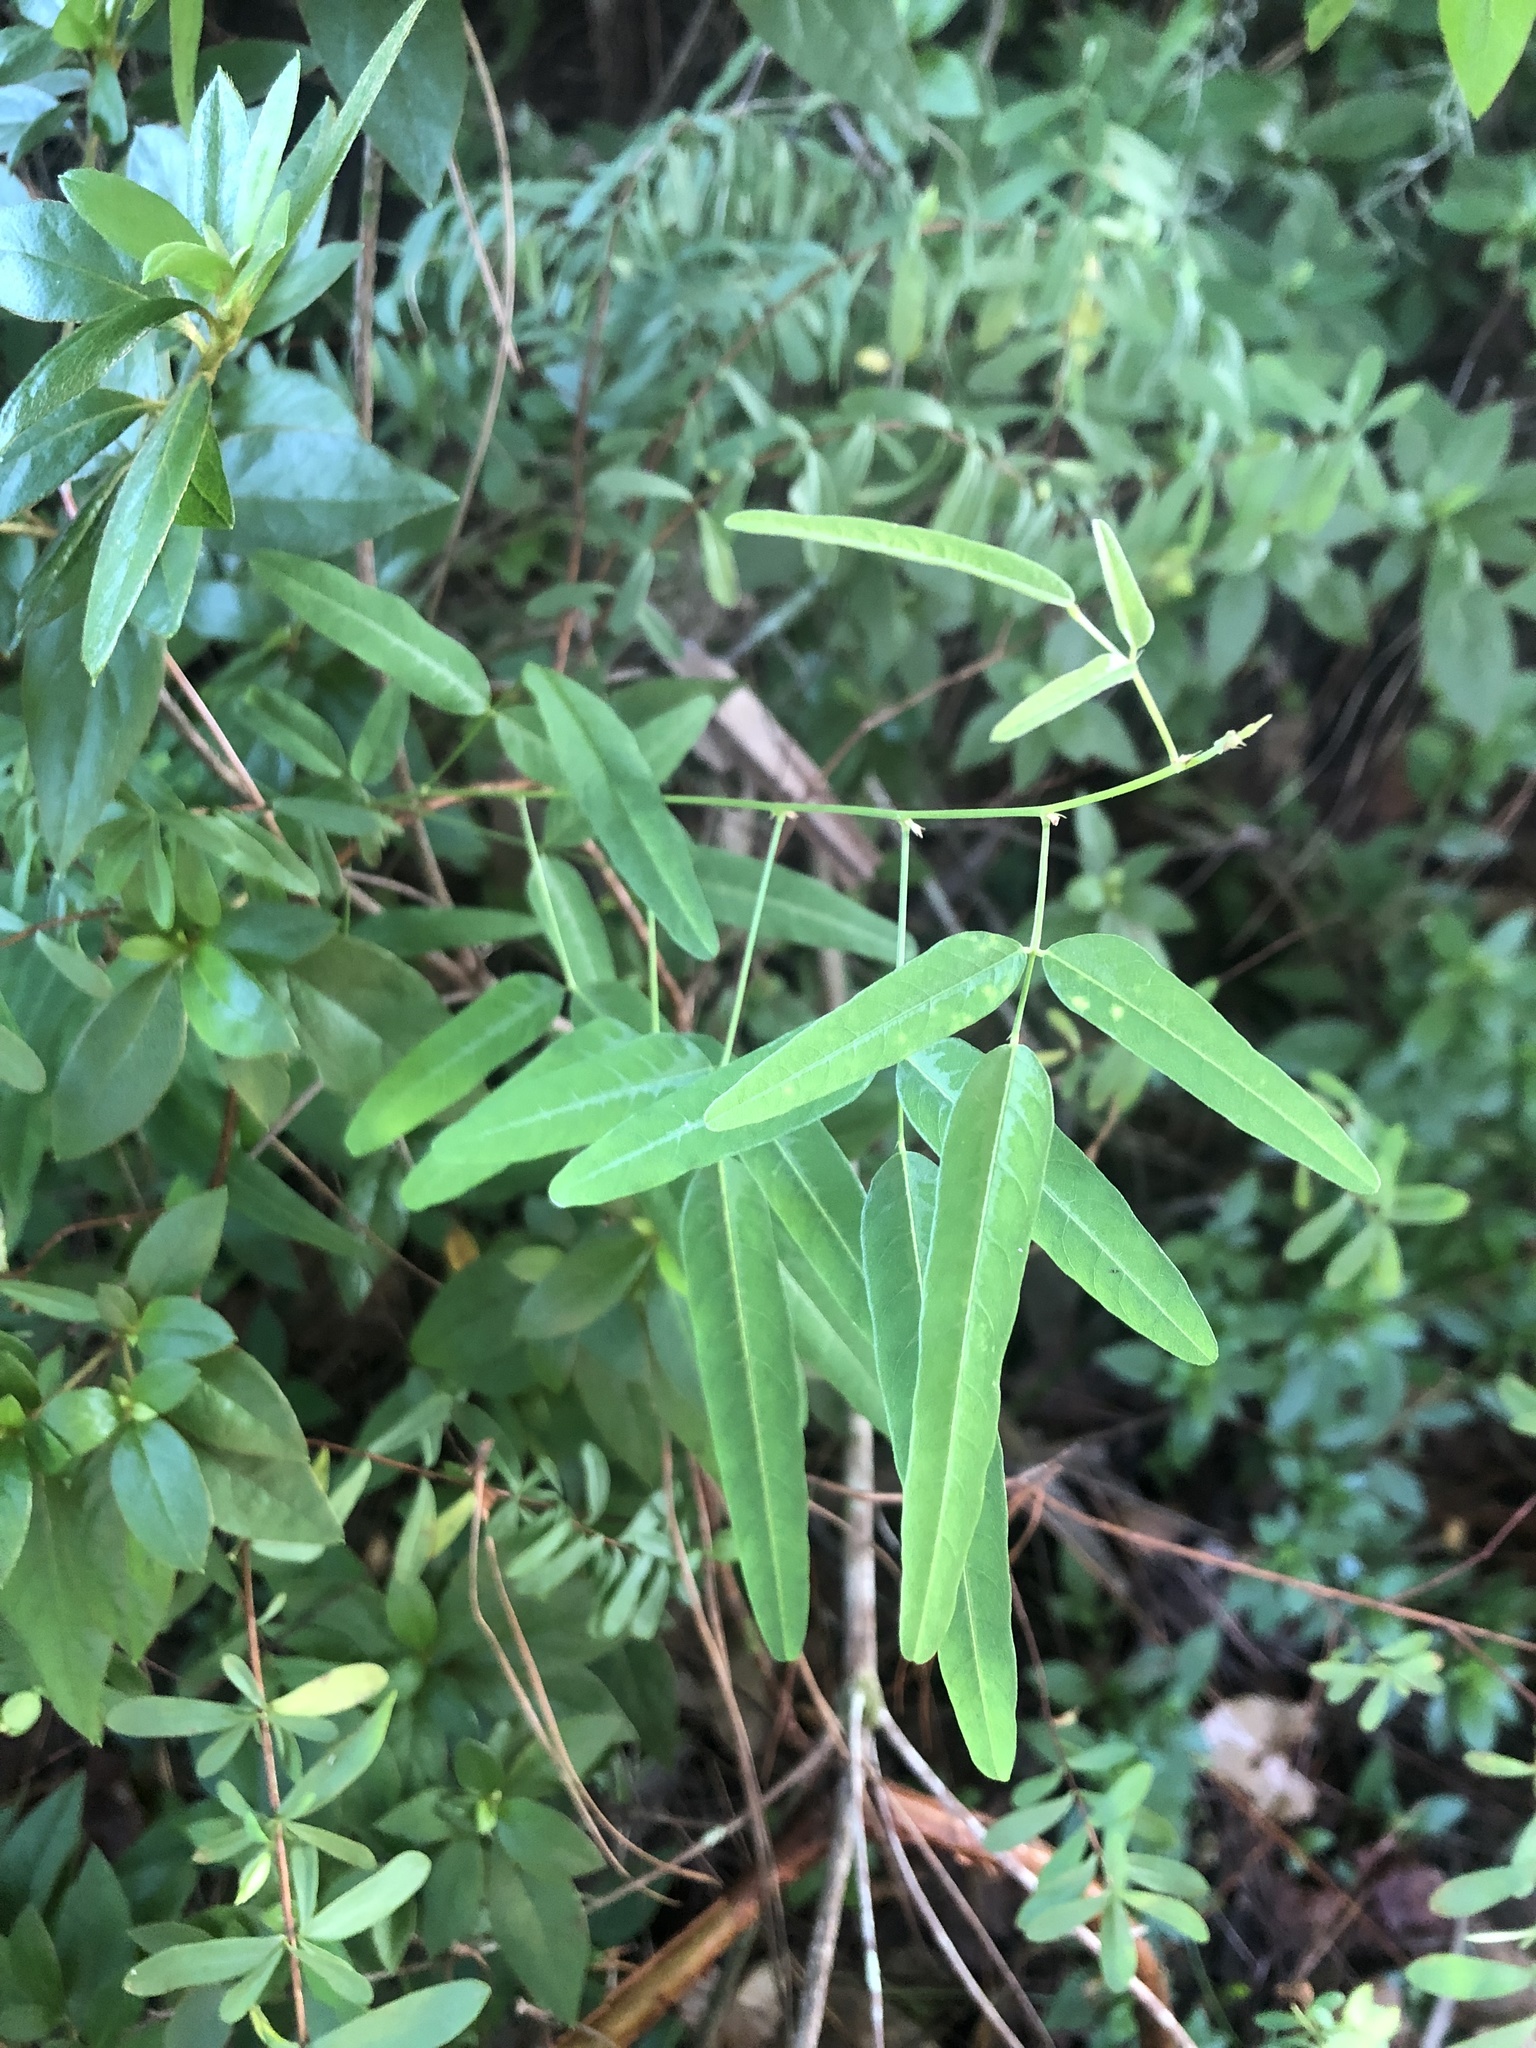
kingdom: Plantae
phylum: Tracheophyta
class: Magnoliopsida
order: Fabales
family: Fabaceae
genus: Desmodium
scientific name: Desmodium paniculatum
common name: Panicled tick-clover
